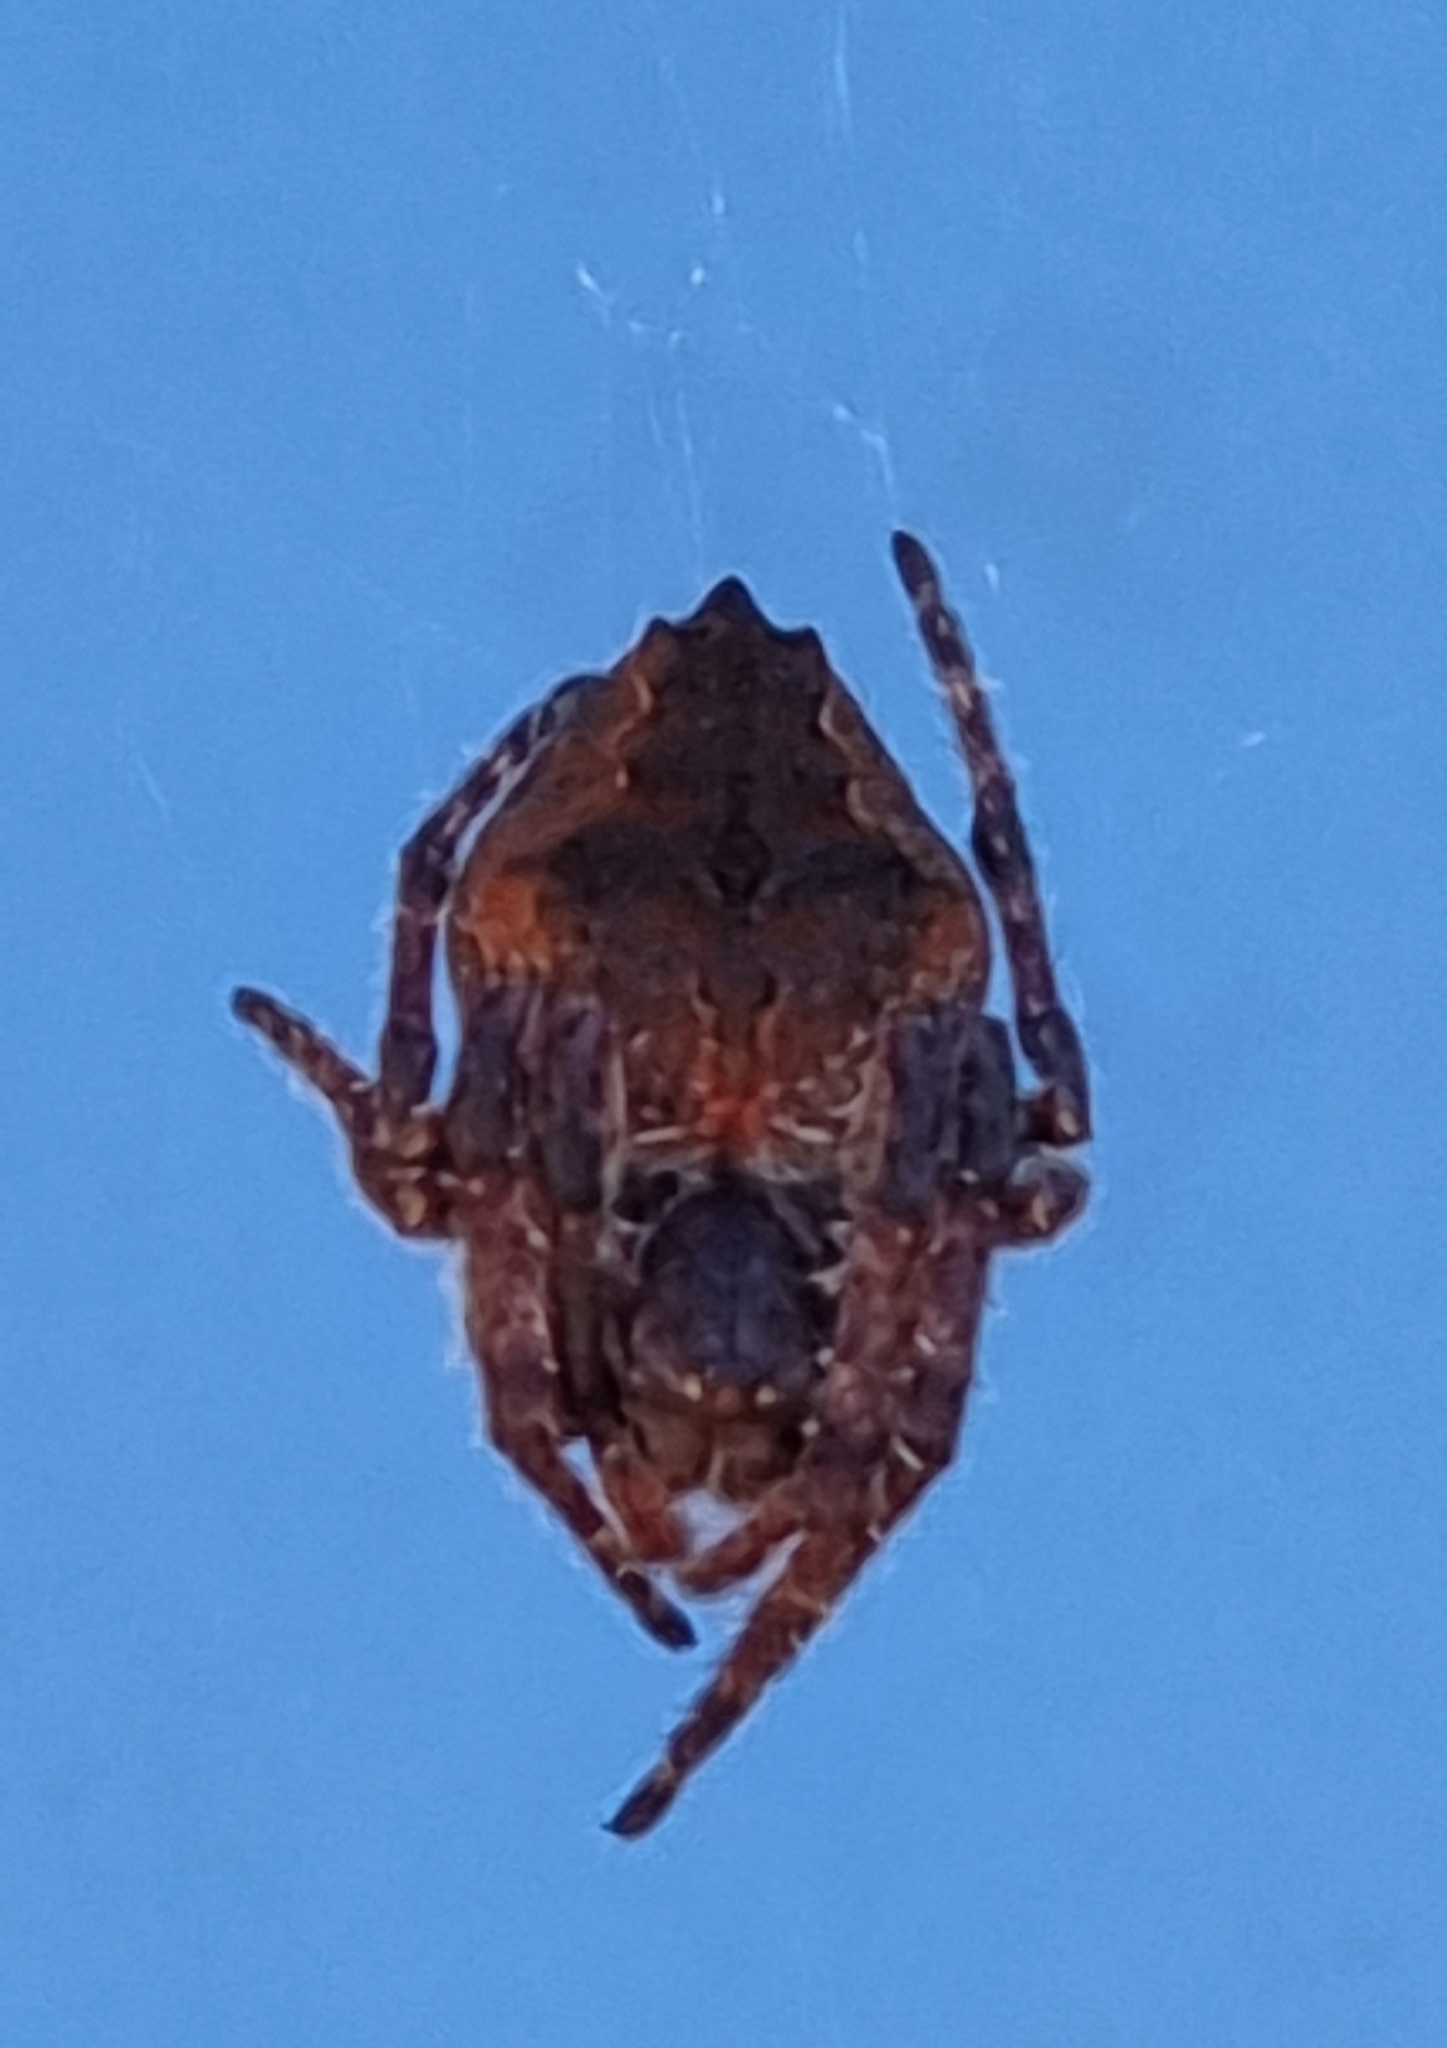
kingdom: Animalia
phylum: Arthropoda
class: Arachnida
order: Araneae
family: Araneidae
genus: Eriophora
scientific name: Eriophora pustulosa
